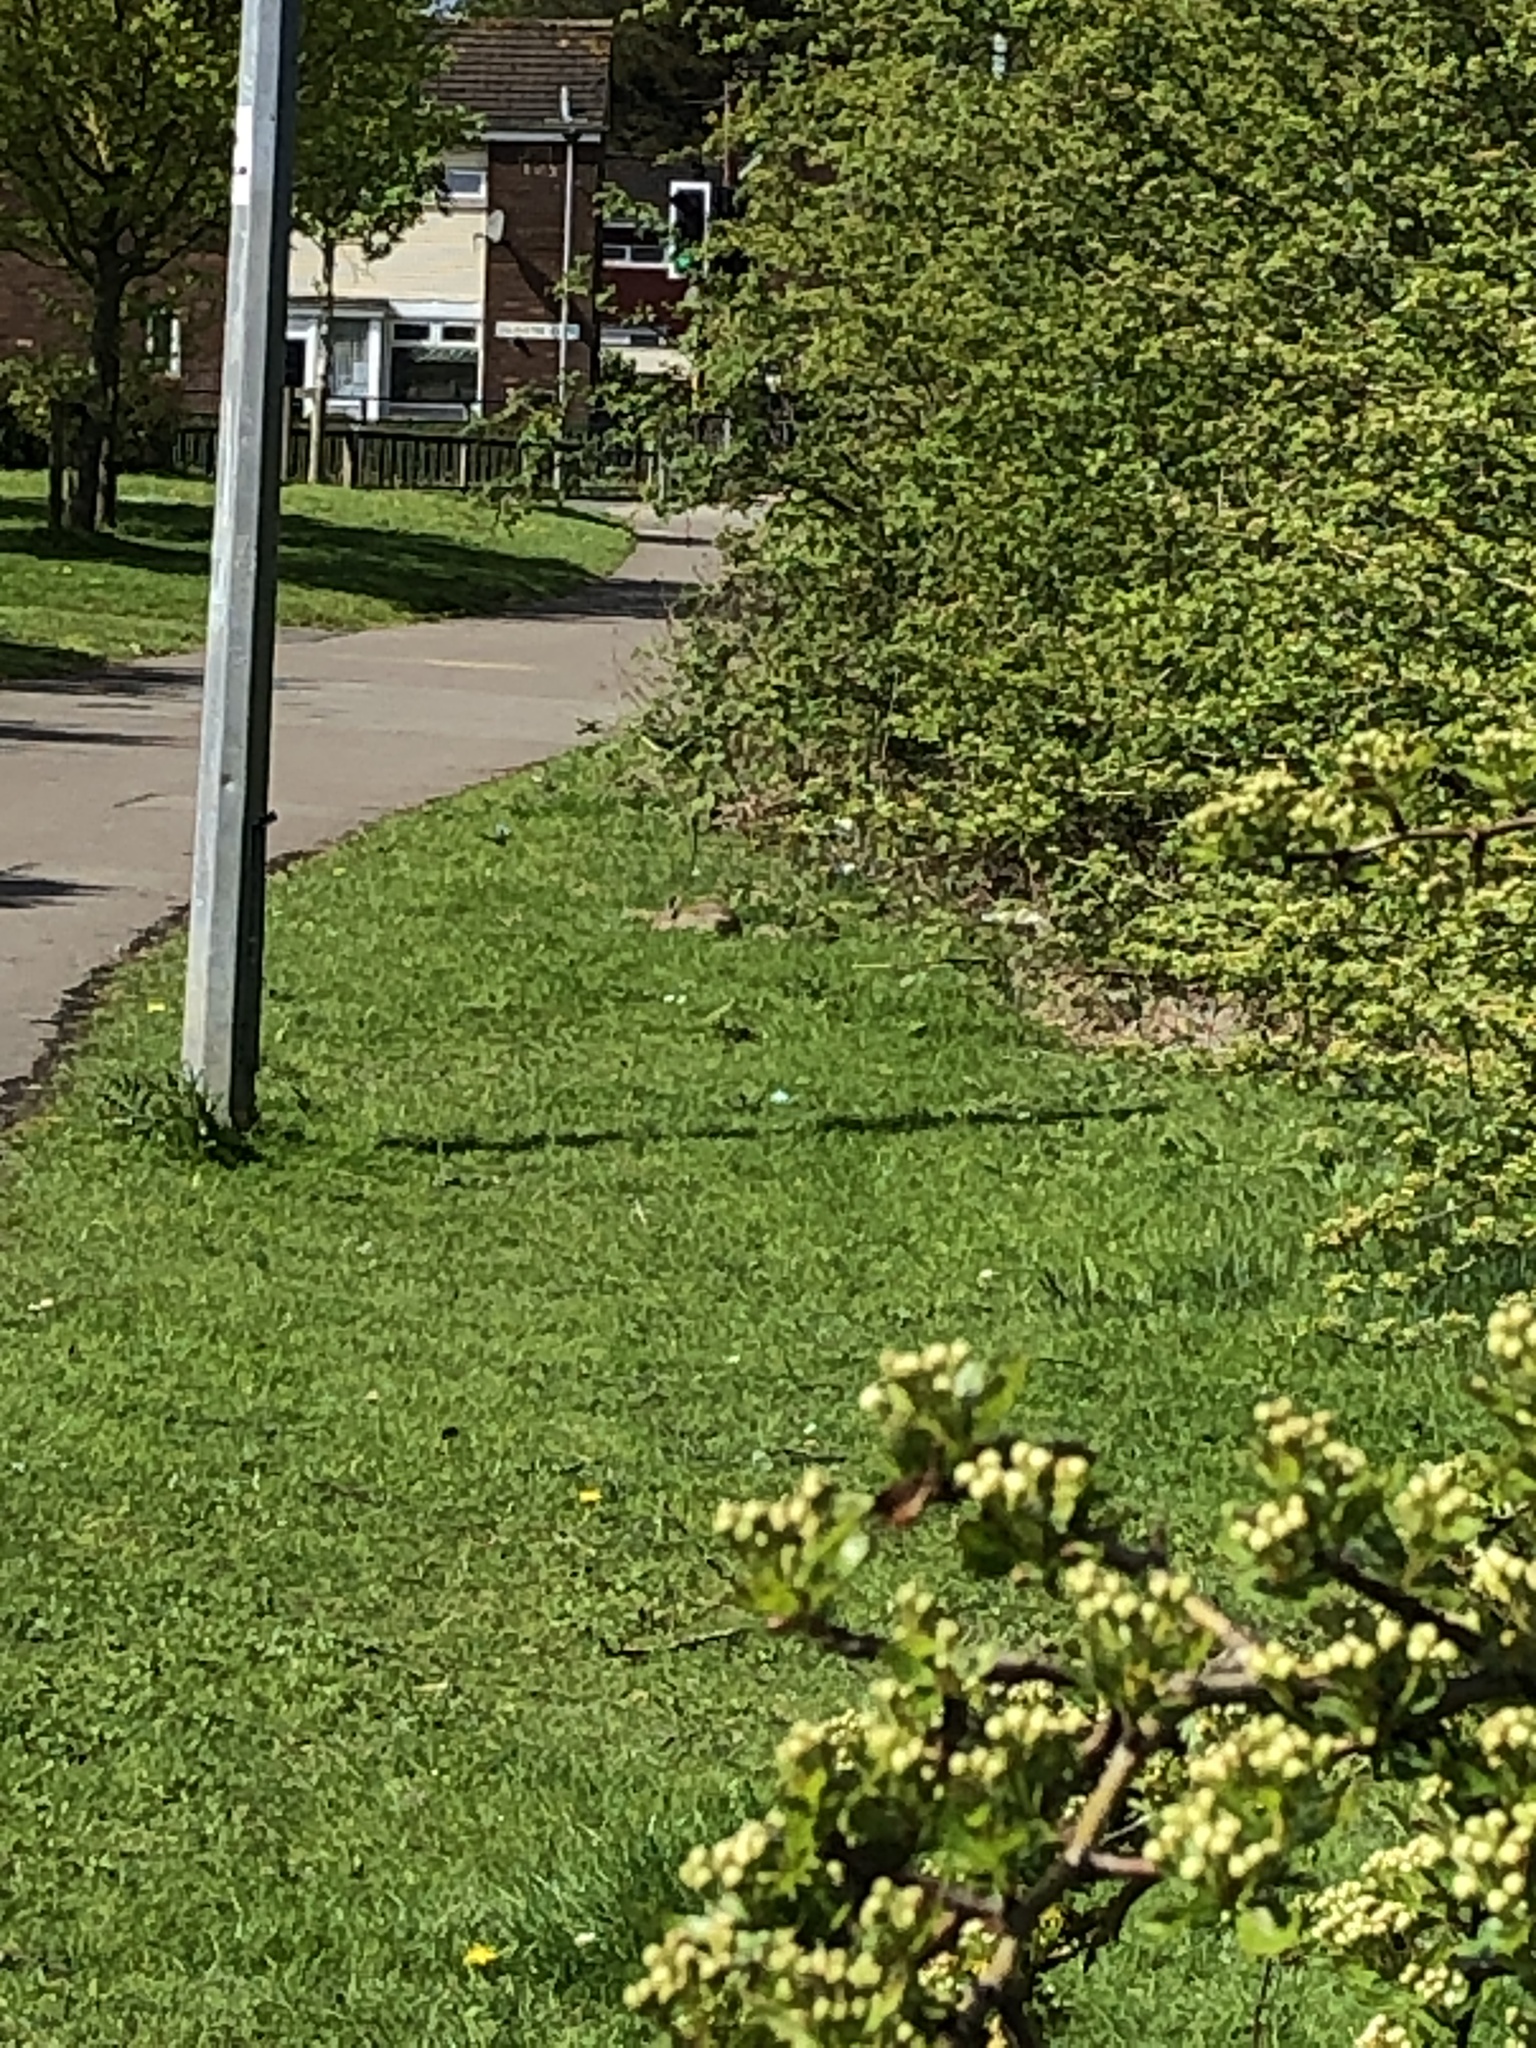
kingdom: Animalia
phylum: Chordata
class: Mammalia
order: Lagomorpha
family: Leporidae
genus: Oryctolagus
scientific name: Oryctolagus cuniculus
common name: European rabbit
